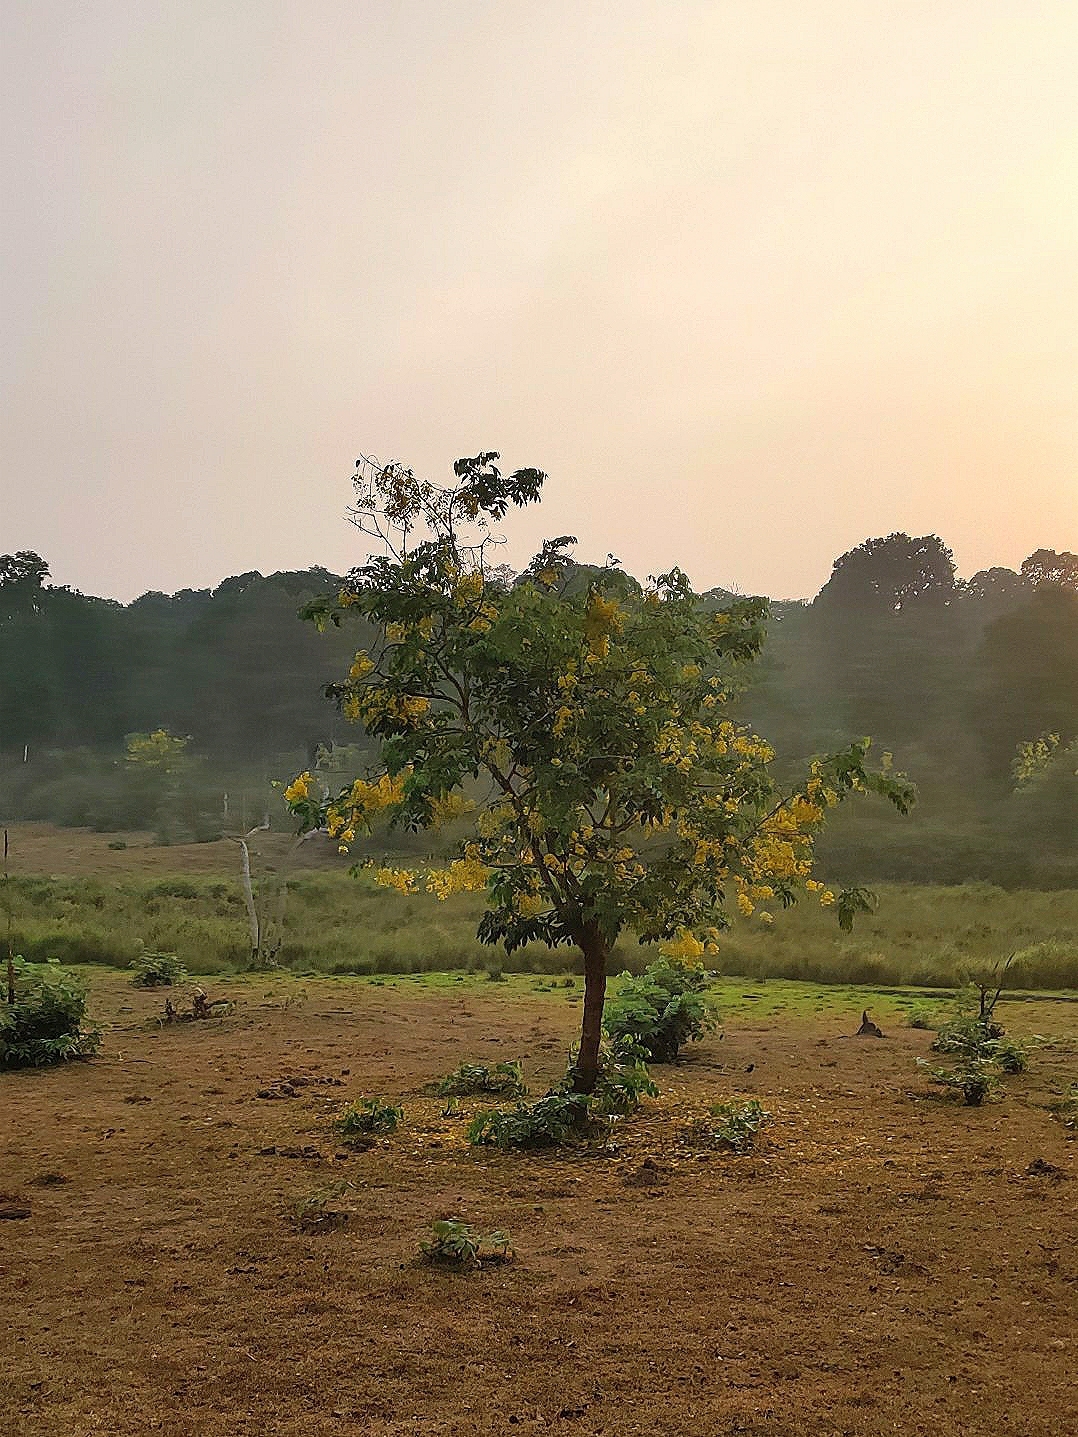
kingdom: Plantae
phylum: Tracheophyta
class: Magnoliopsida
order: Fabales
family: Fabaceae
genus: Cassia
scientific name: Cassia fistula
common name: Golden shower
